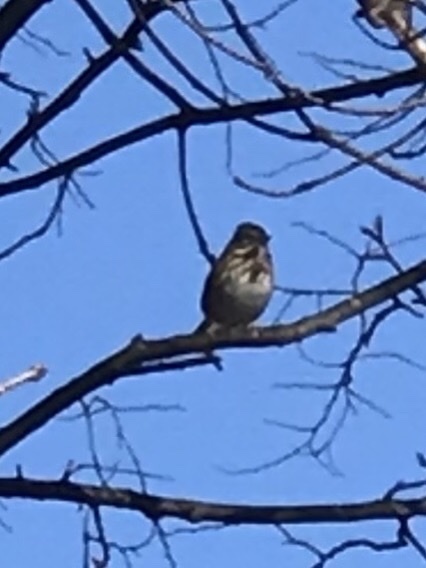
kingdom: Animalia
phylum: Chordata
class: Aves
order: Passeriformes
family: Passerellidae
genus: Melospiza
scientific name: Melospiza melodia
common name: Song sparrow
